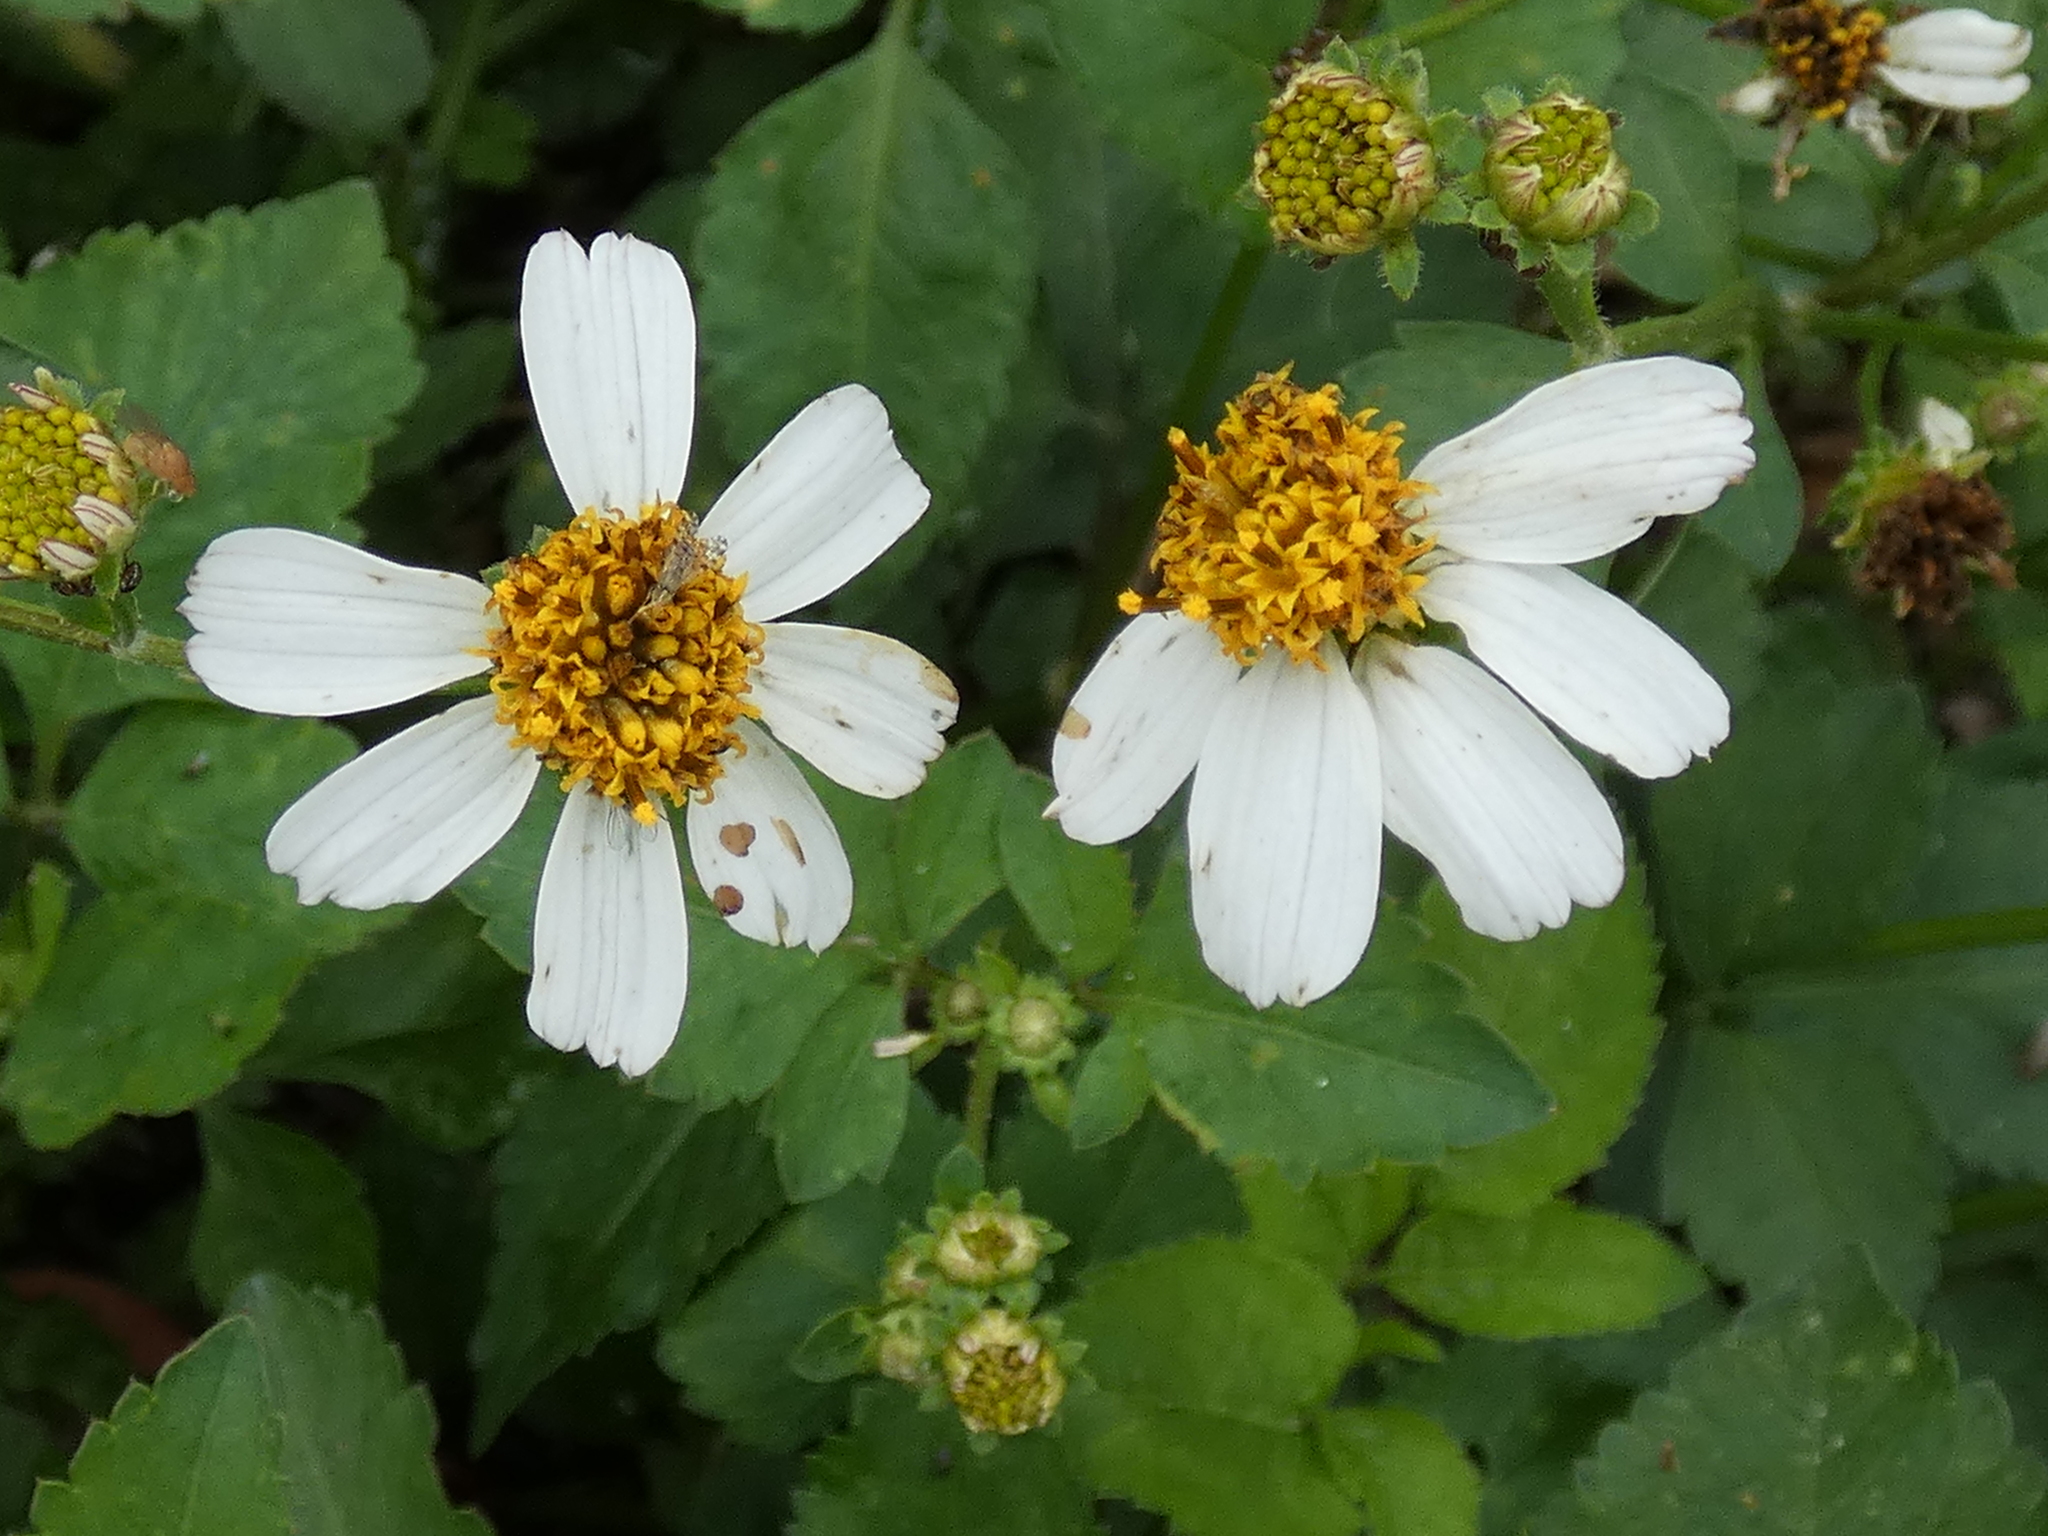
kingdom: Plantae
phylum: Tracheophyta
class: Magnoliopsida
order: Asterales
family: Asteraceae
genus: Bidens
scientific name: Bidens alba
